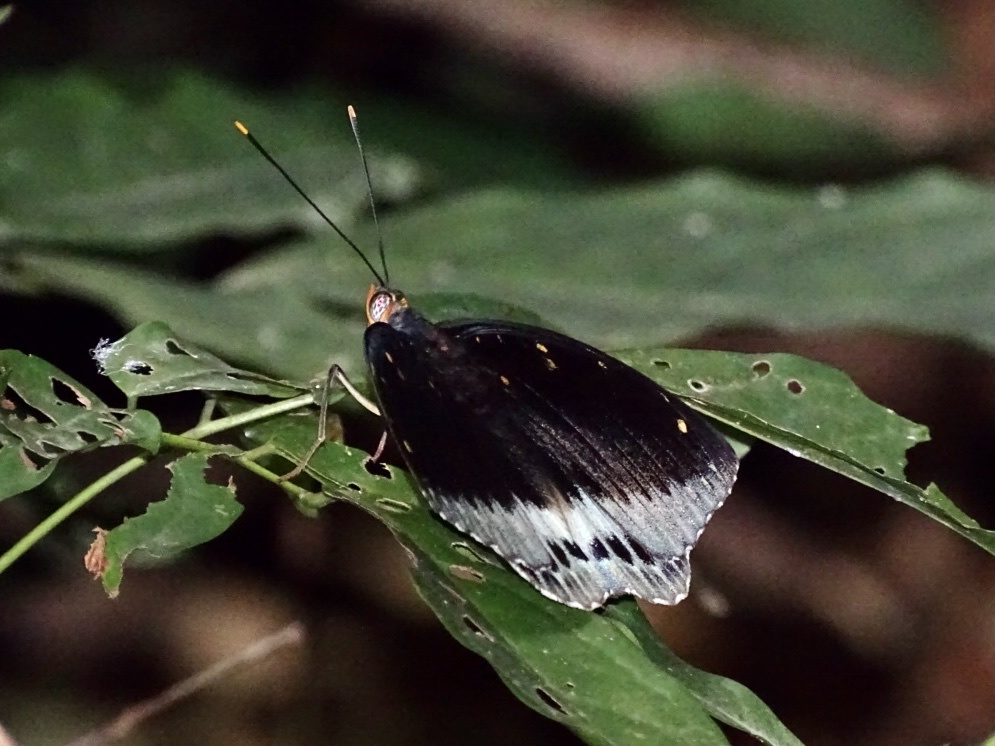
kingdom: Animalia
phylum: Arthropoda
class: Insecta
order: Lepidoptera
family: Nymphalidae
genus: Lexias
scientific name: Lexias pardalis
